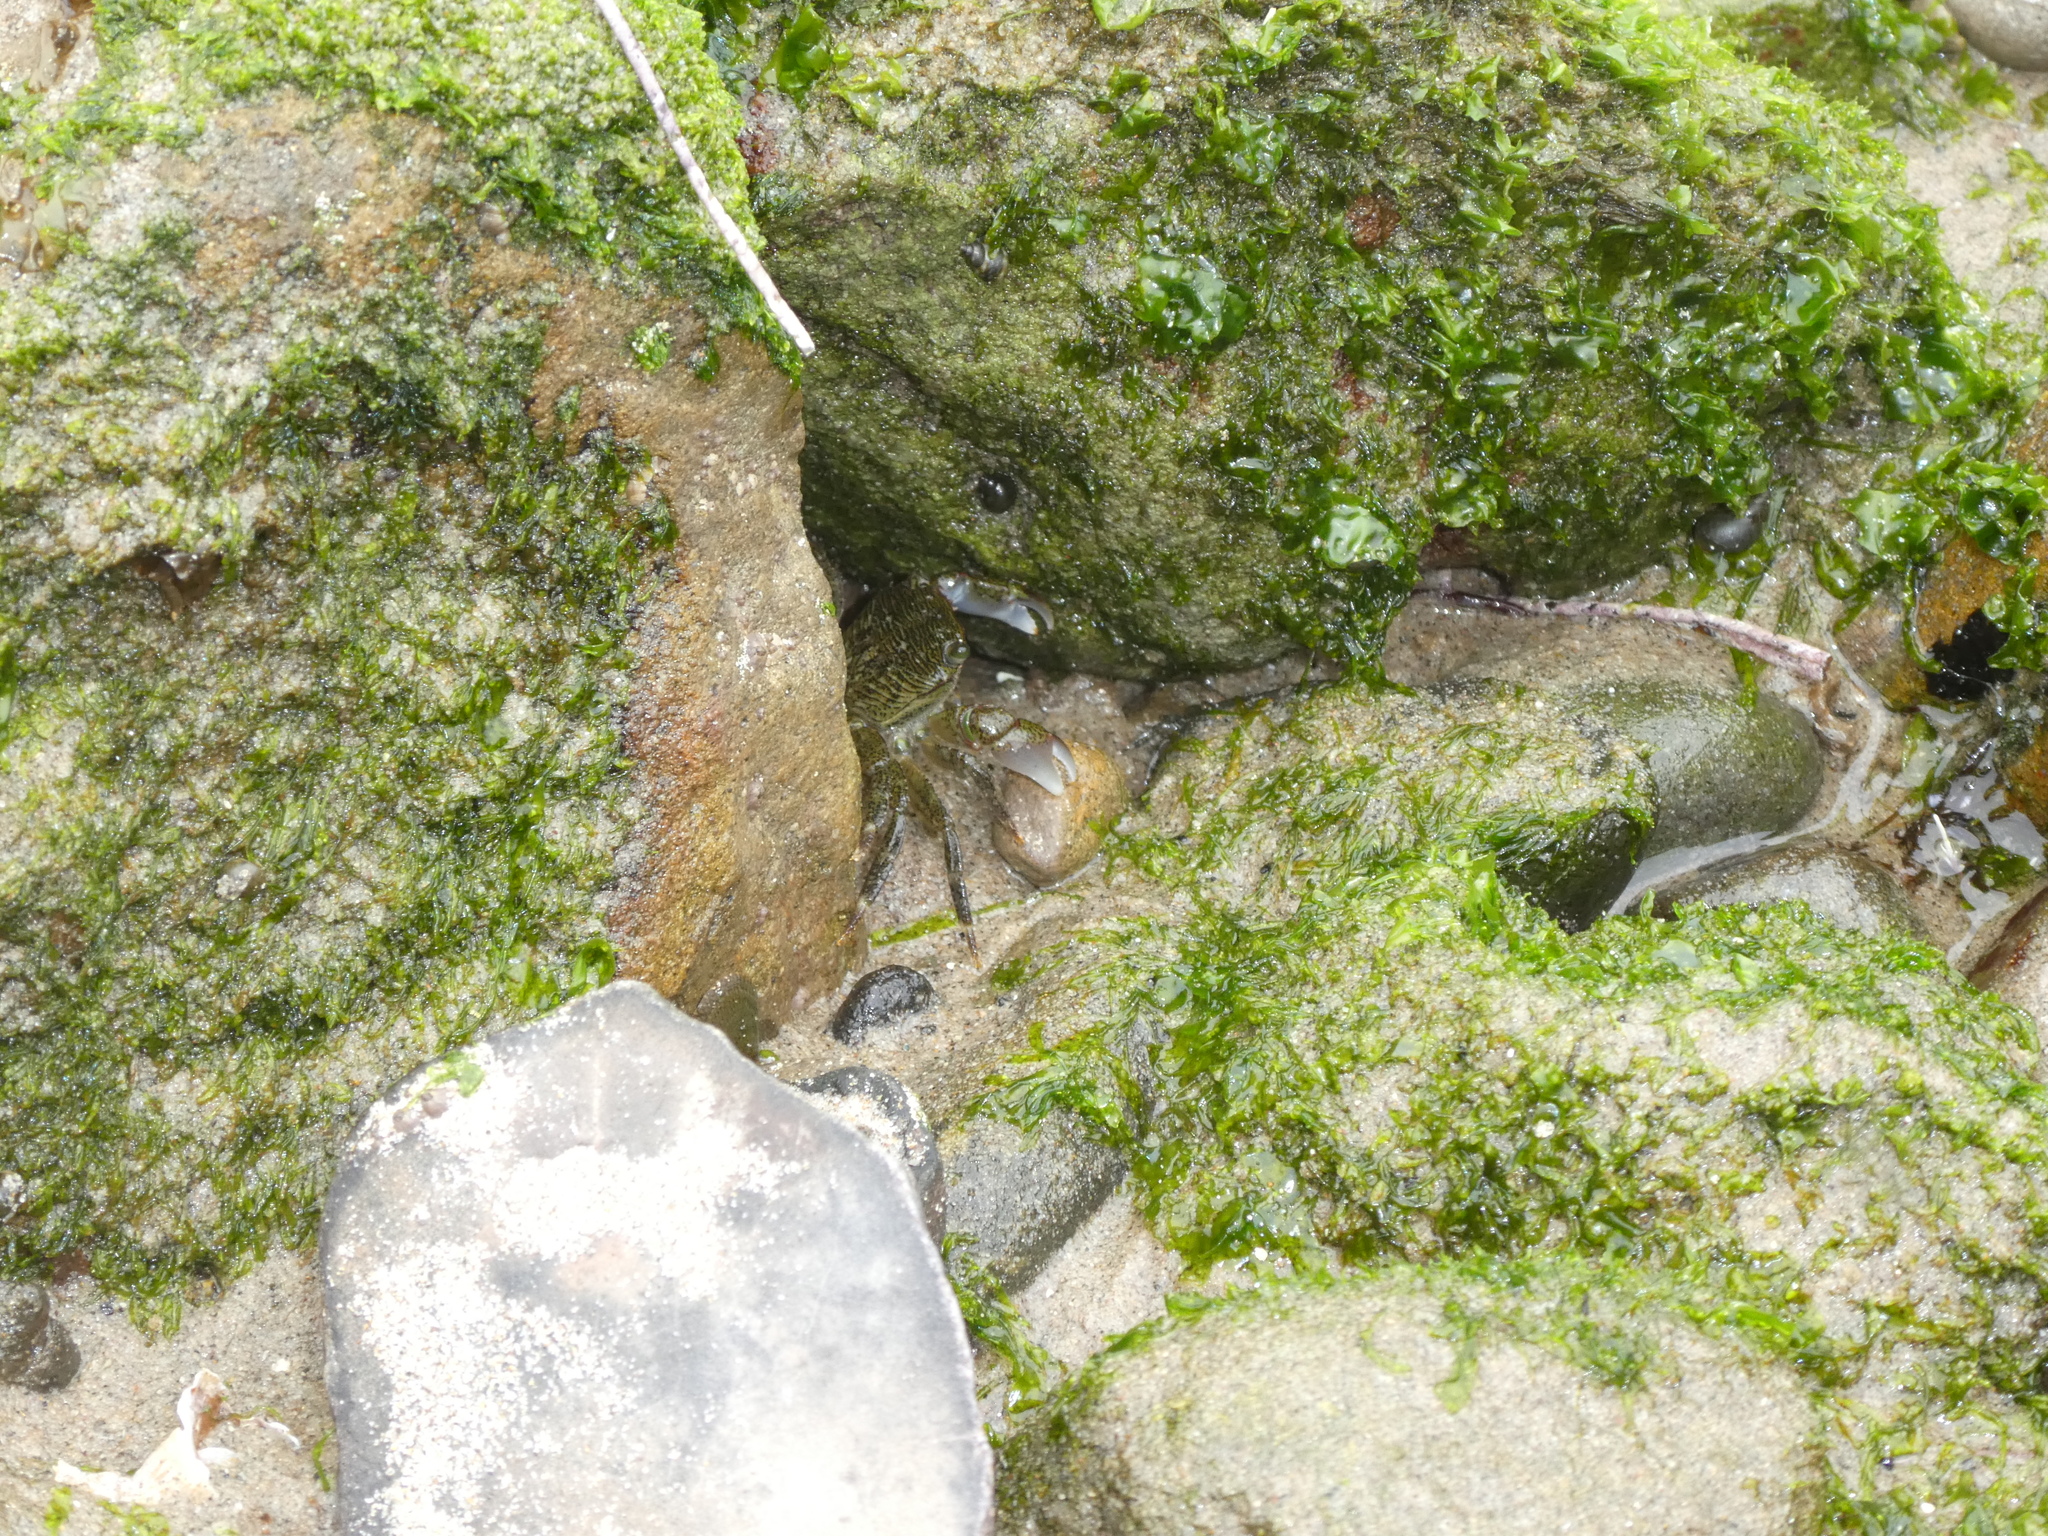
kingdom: Animalia
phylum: Arthropoda
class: Malacostraca
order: Decapoda
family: Grapsidae
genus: Pachygrapsus
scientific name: Pachygrapsus crassipes
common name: Striped shore crab
